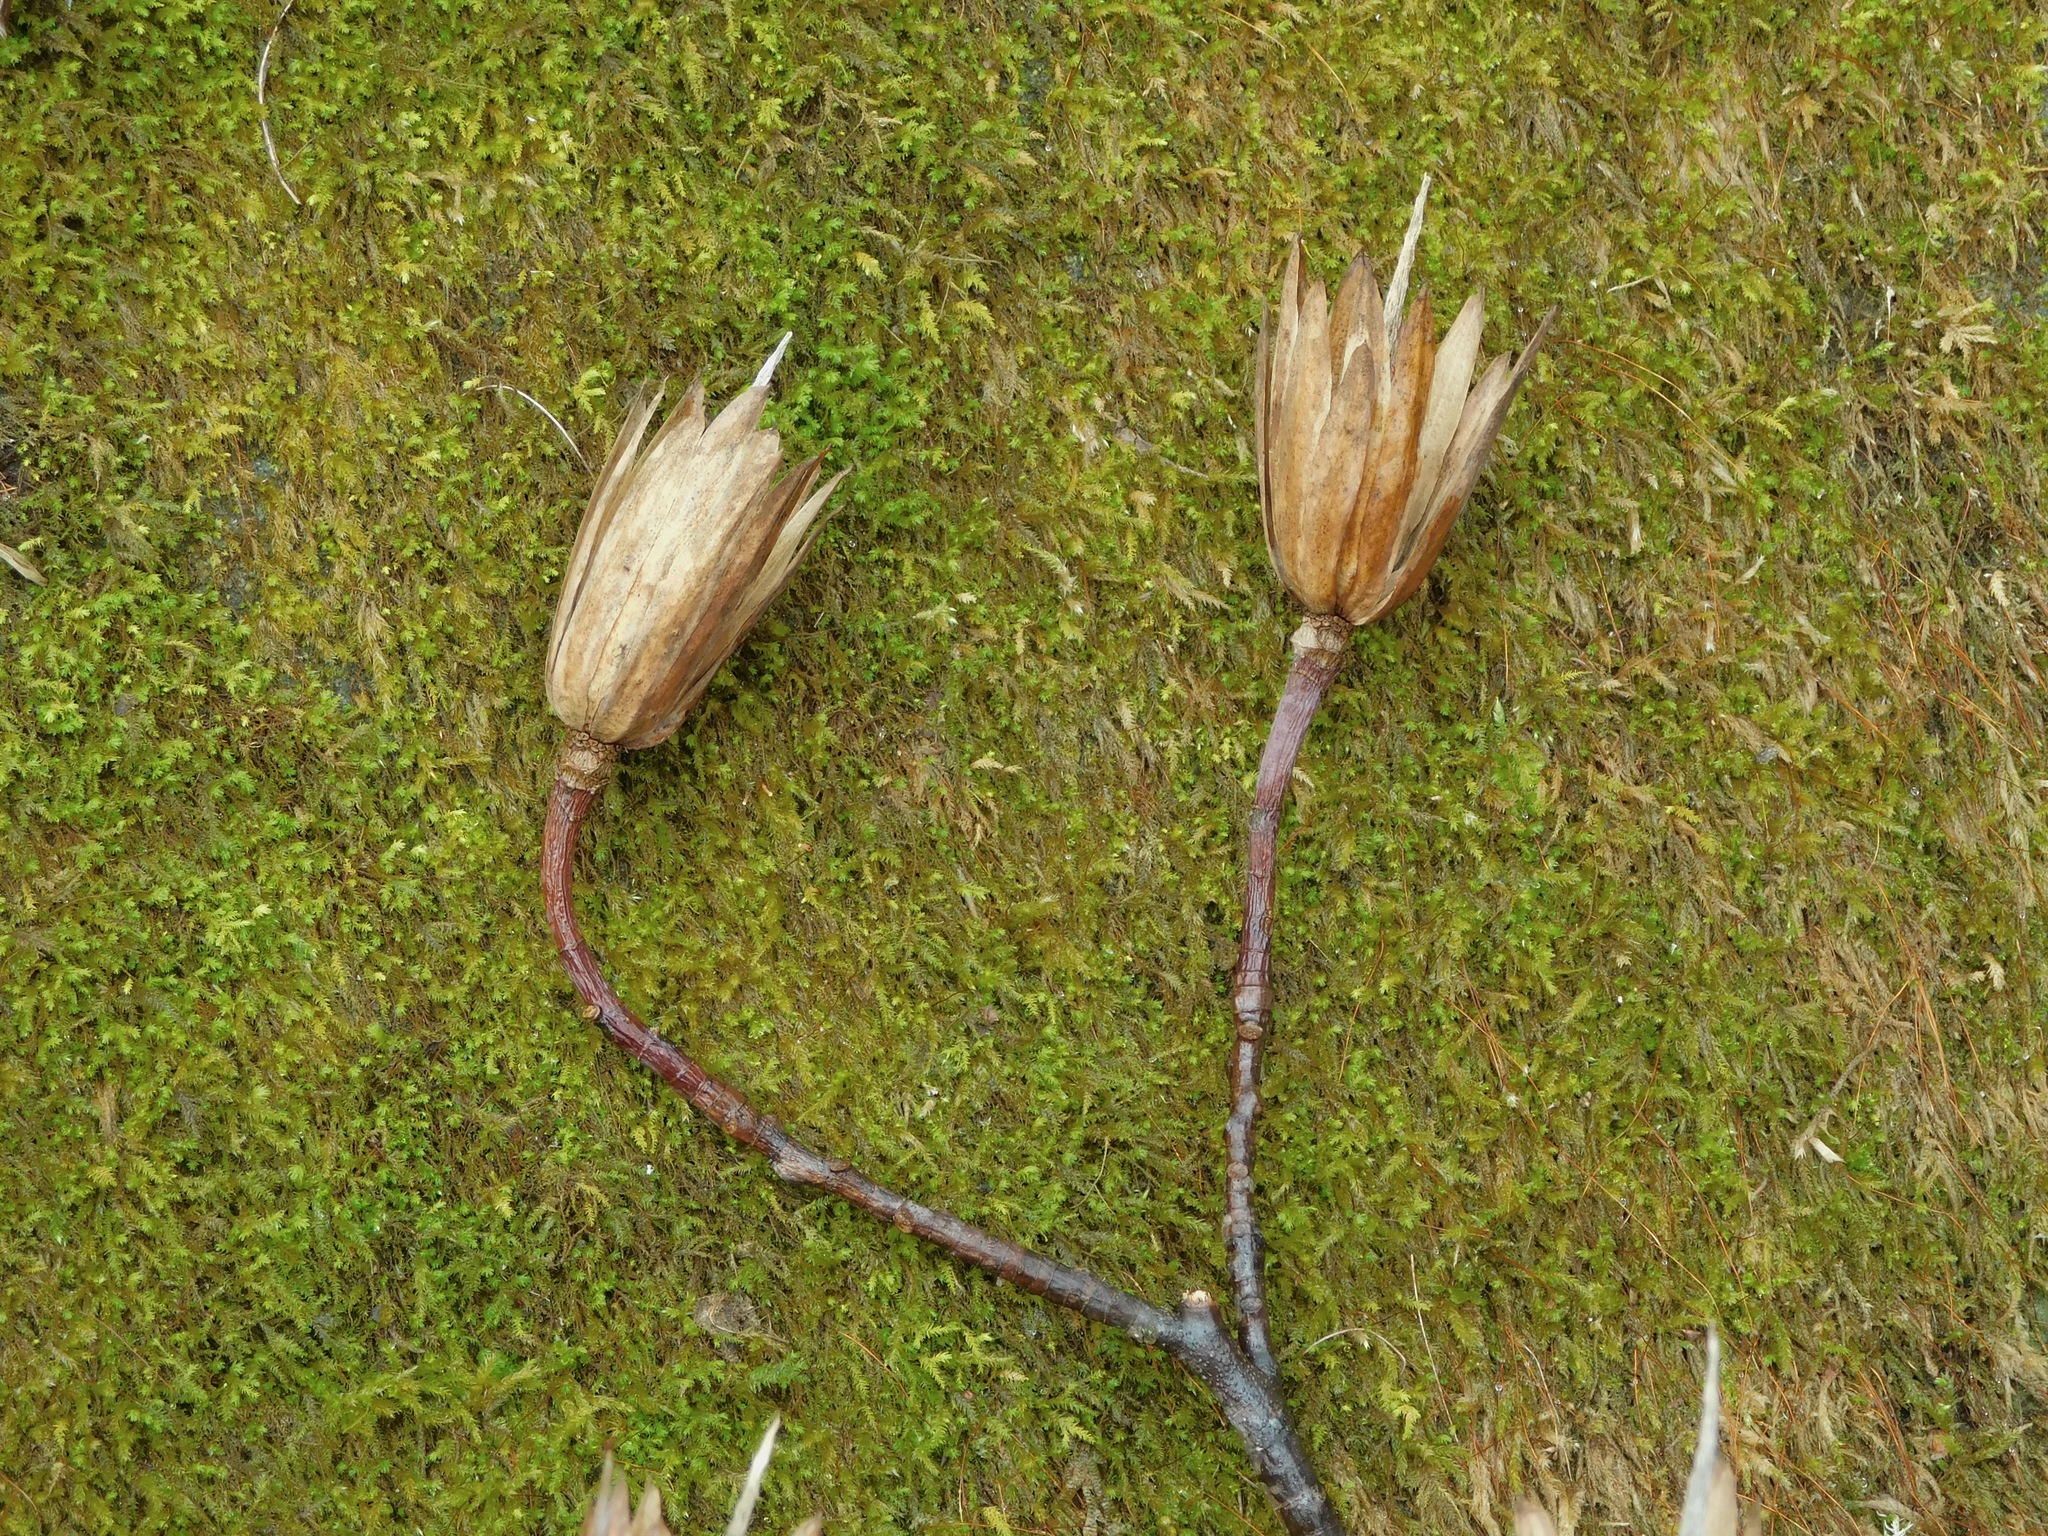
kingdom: Plantae
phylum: Tracheophyta
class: Magnoliopsida
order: Magnoliales
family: Magnoliaceae
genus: Liriodendron
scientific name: Liriodendron tulipifera
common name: Tulip tree
